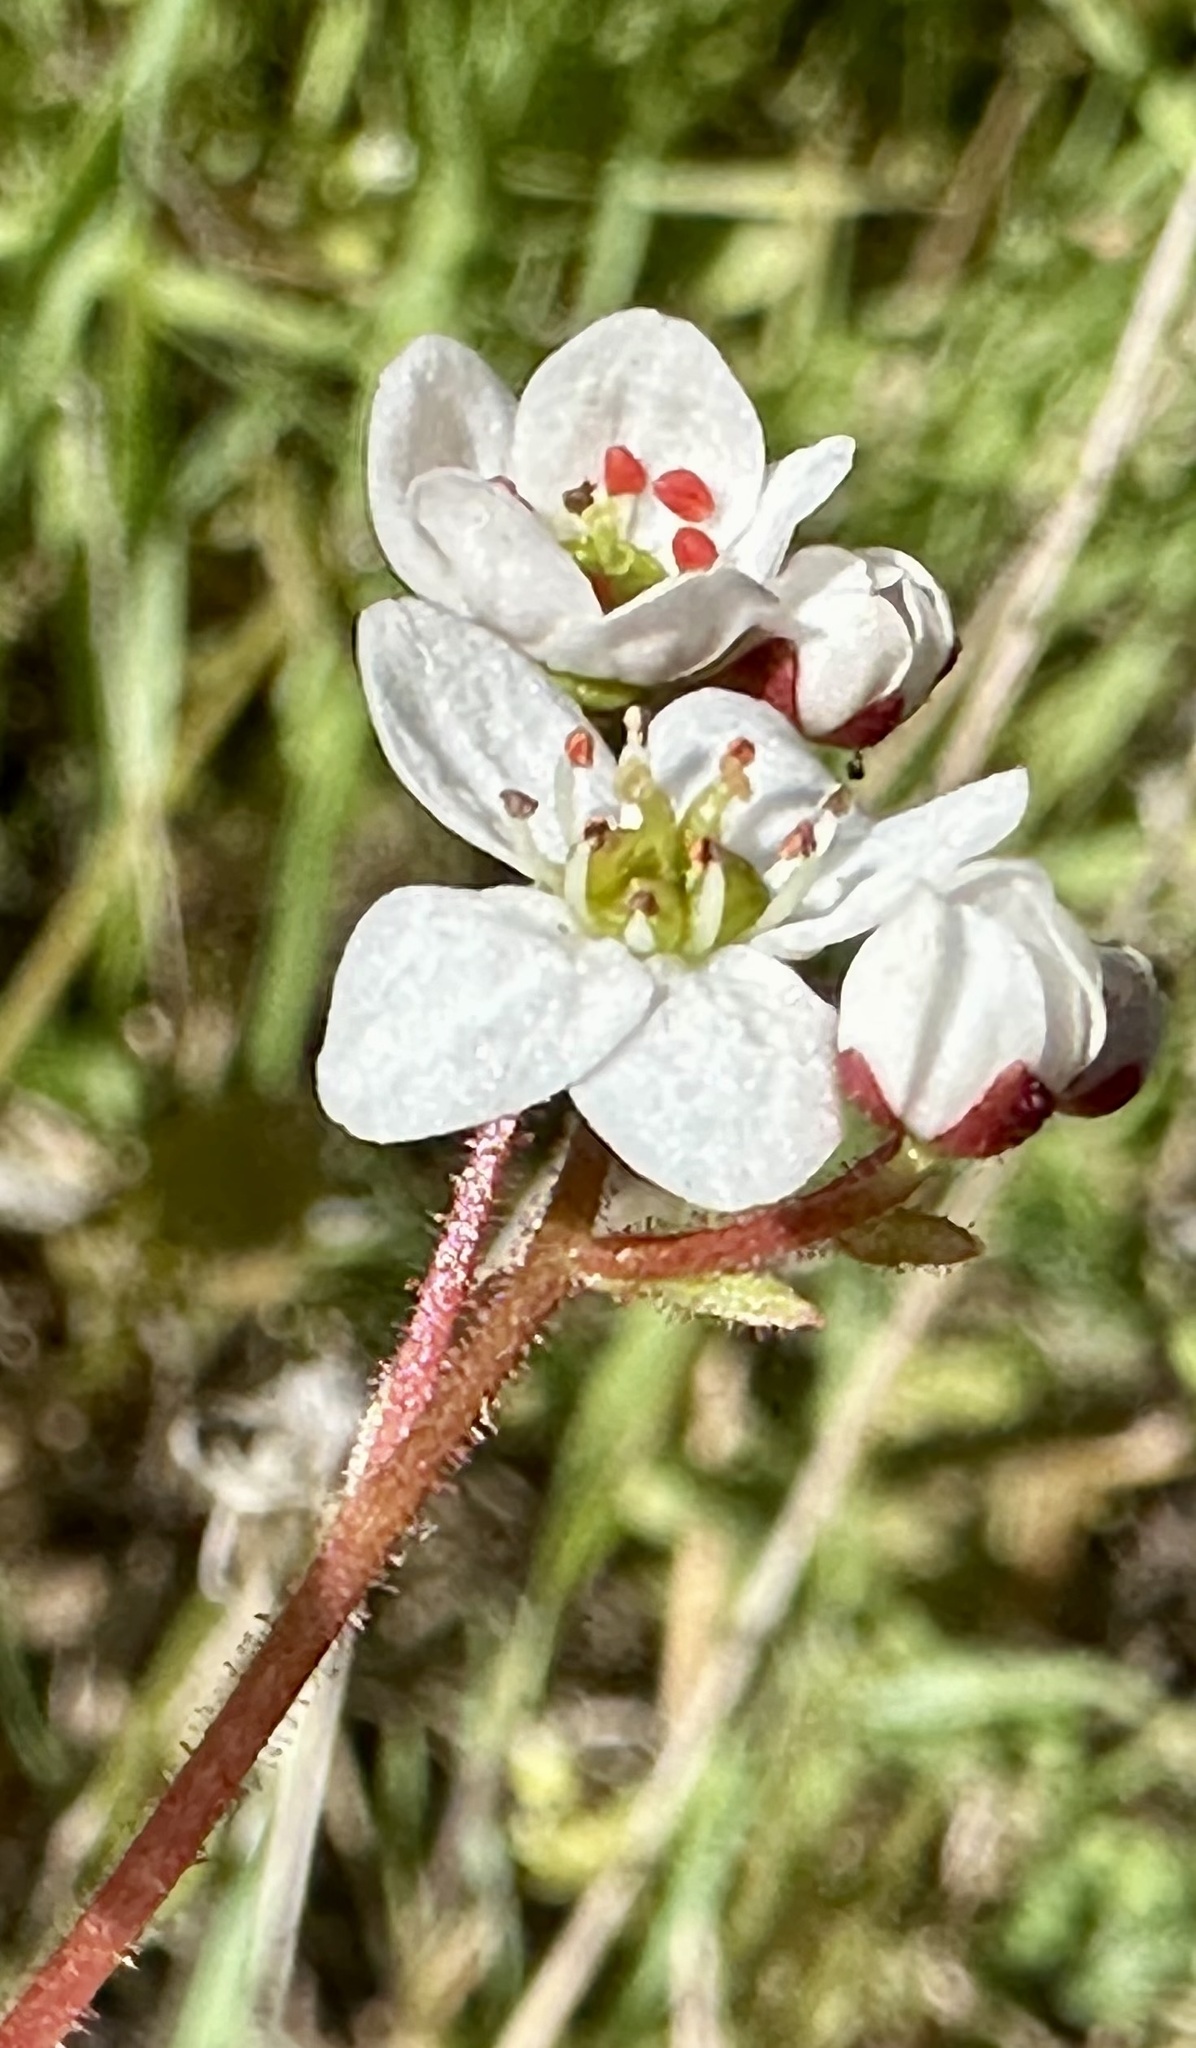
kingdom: Plantae
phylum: Tracheophyta
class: Magnoliopsida
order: Saxifragales
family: Saxifragaceae
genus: Micranthes
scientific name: Micranthes californica
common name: California saxifrage
